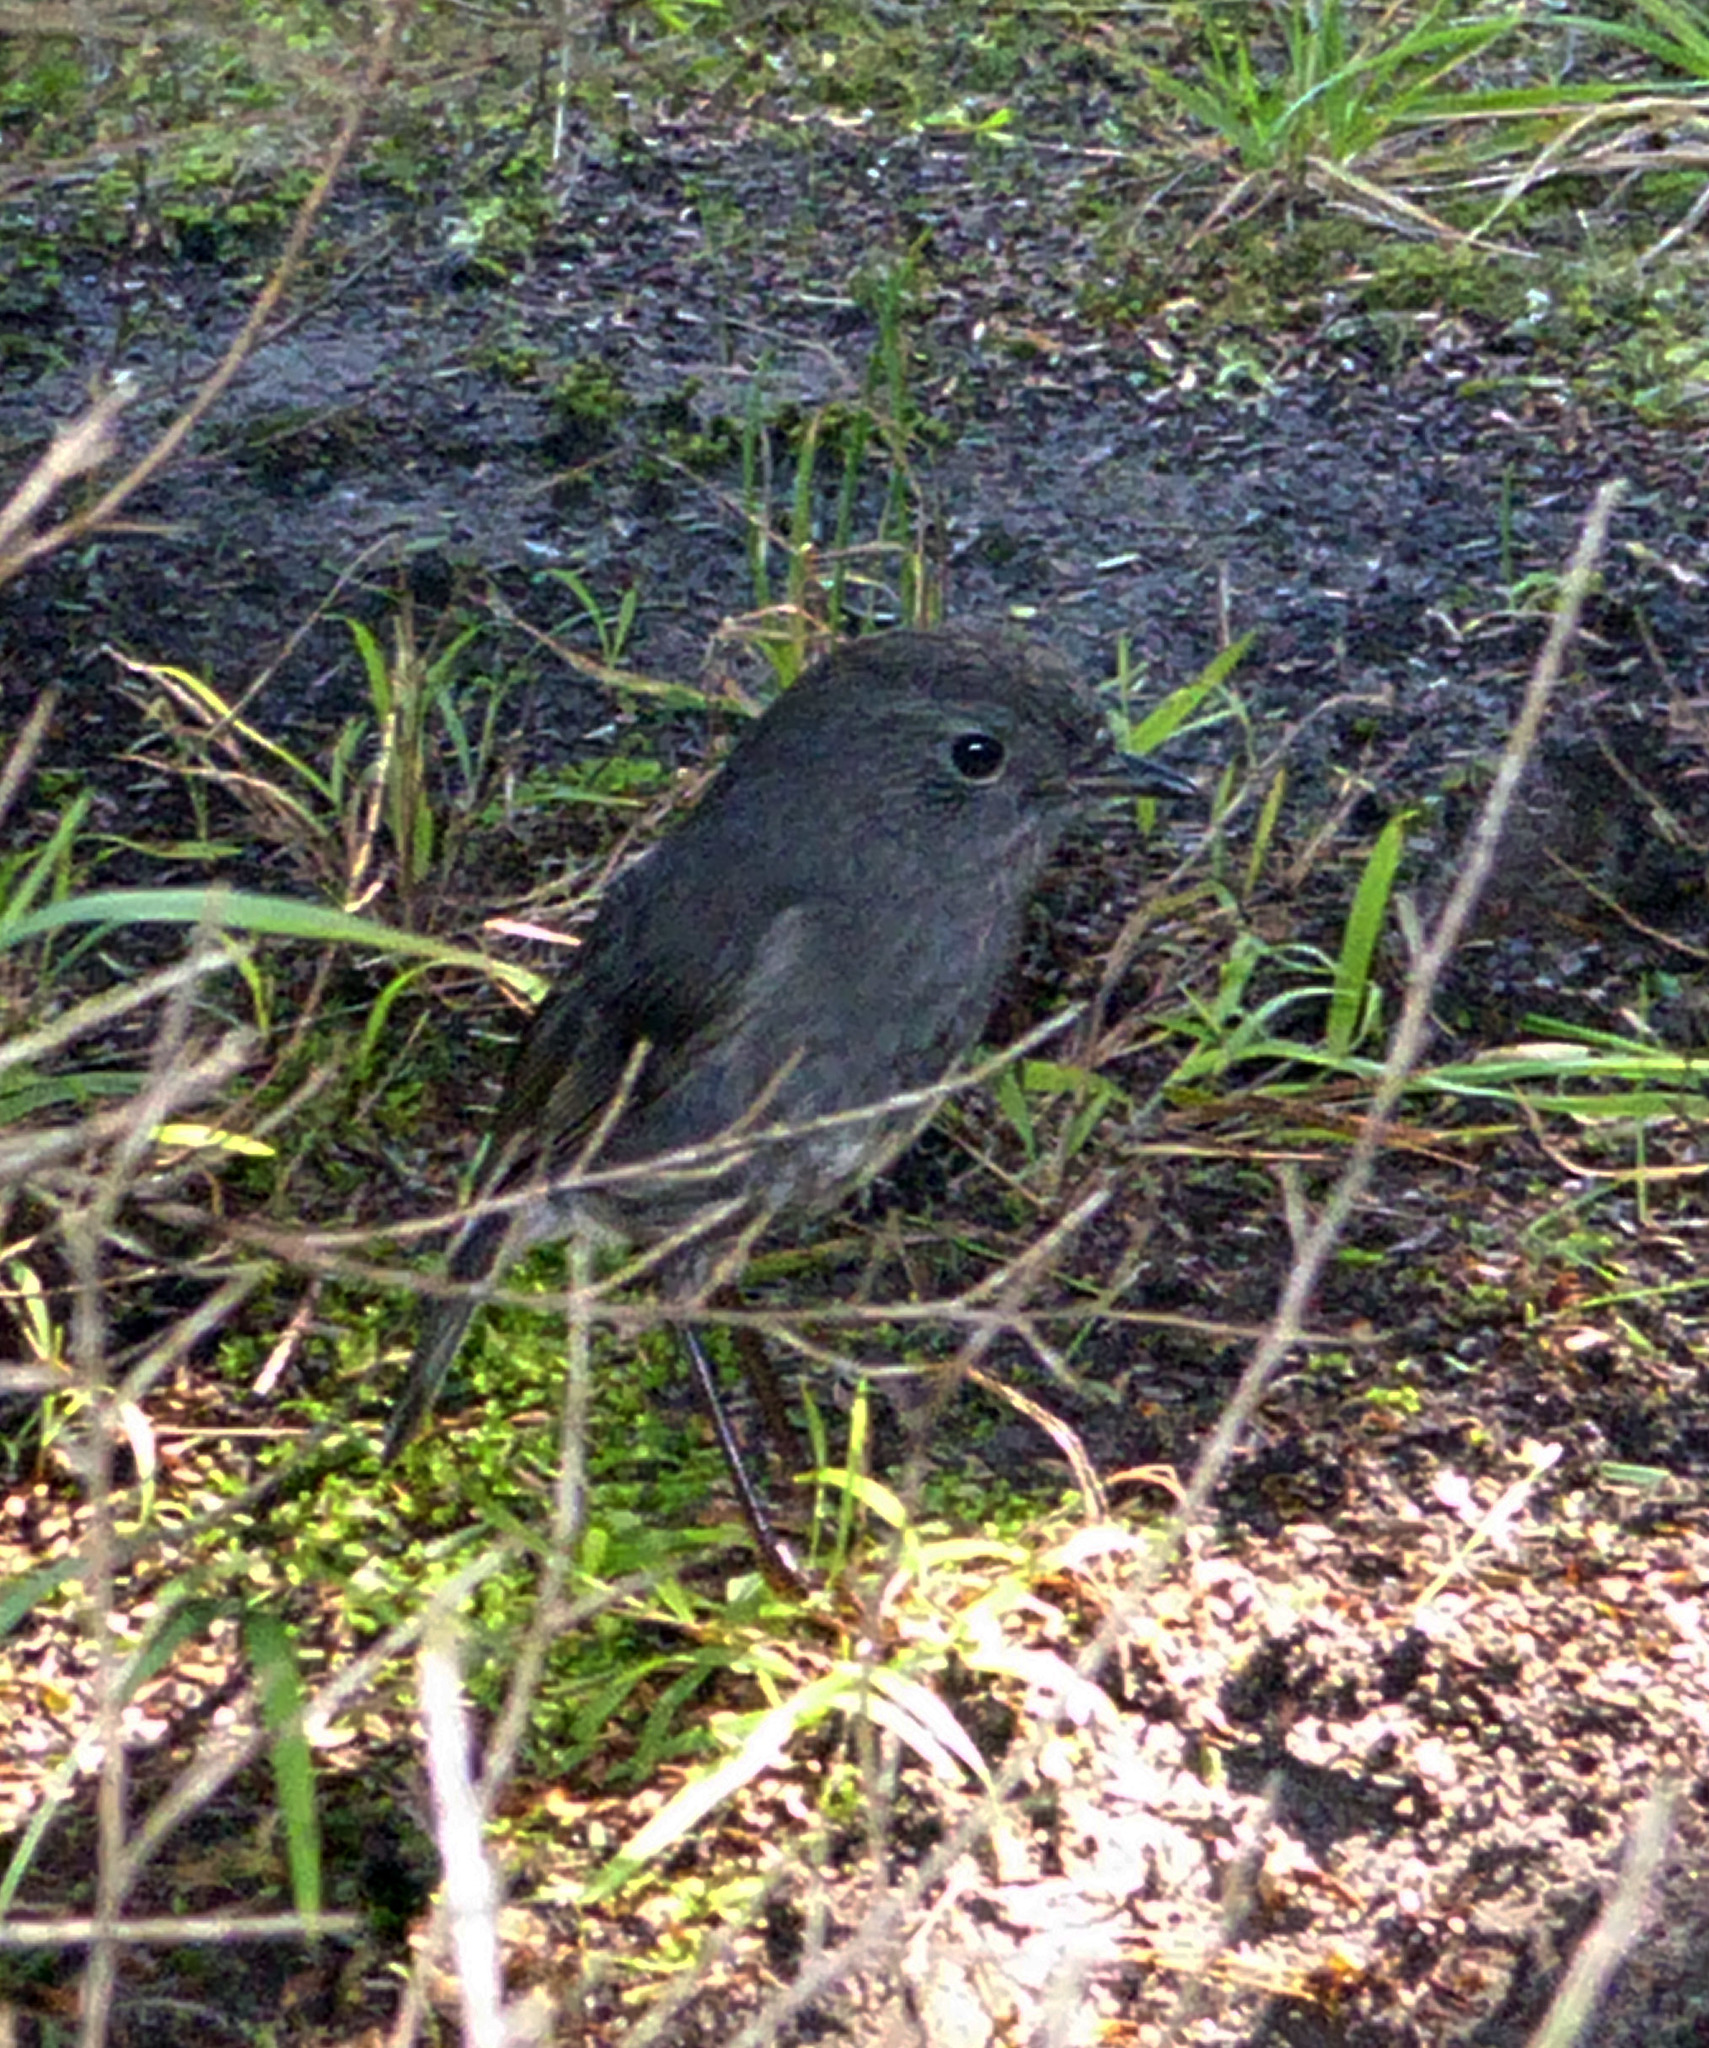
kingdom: Animalia
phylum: Chordata
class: Aves
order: Passeriformes
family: Petroicidae
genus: Petroica
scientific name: Petroica australis
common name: New zealand robin
